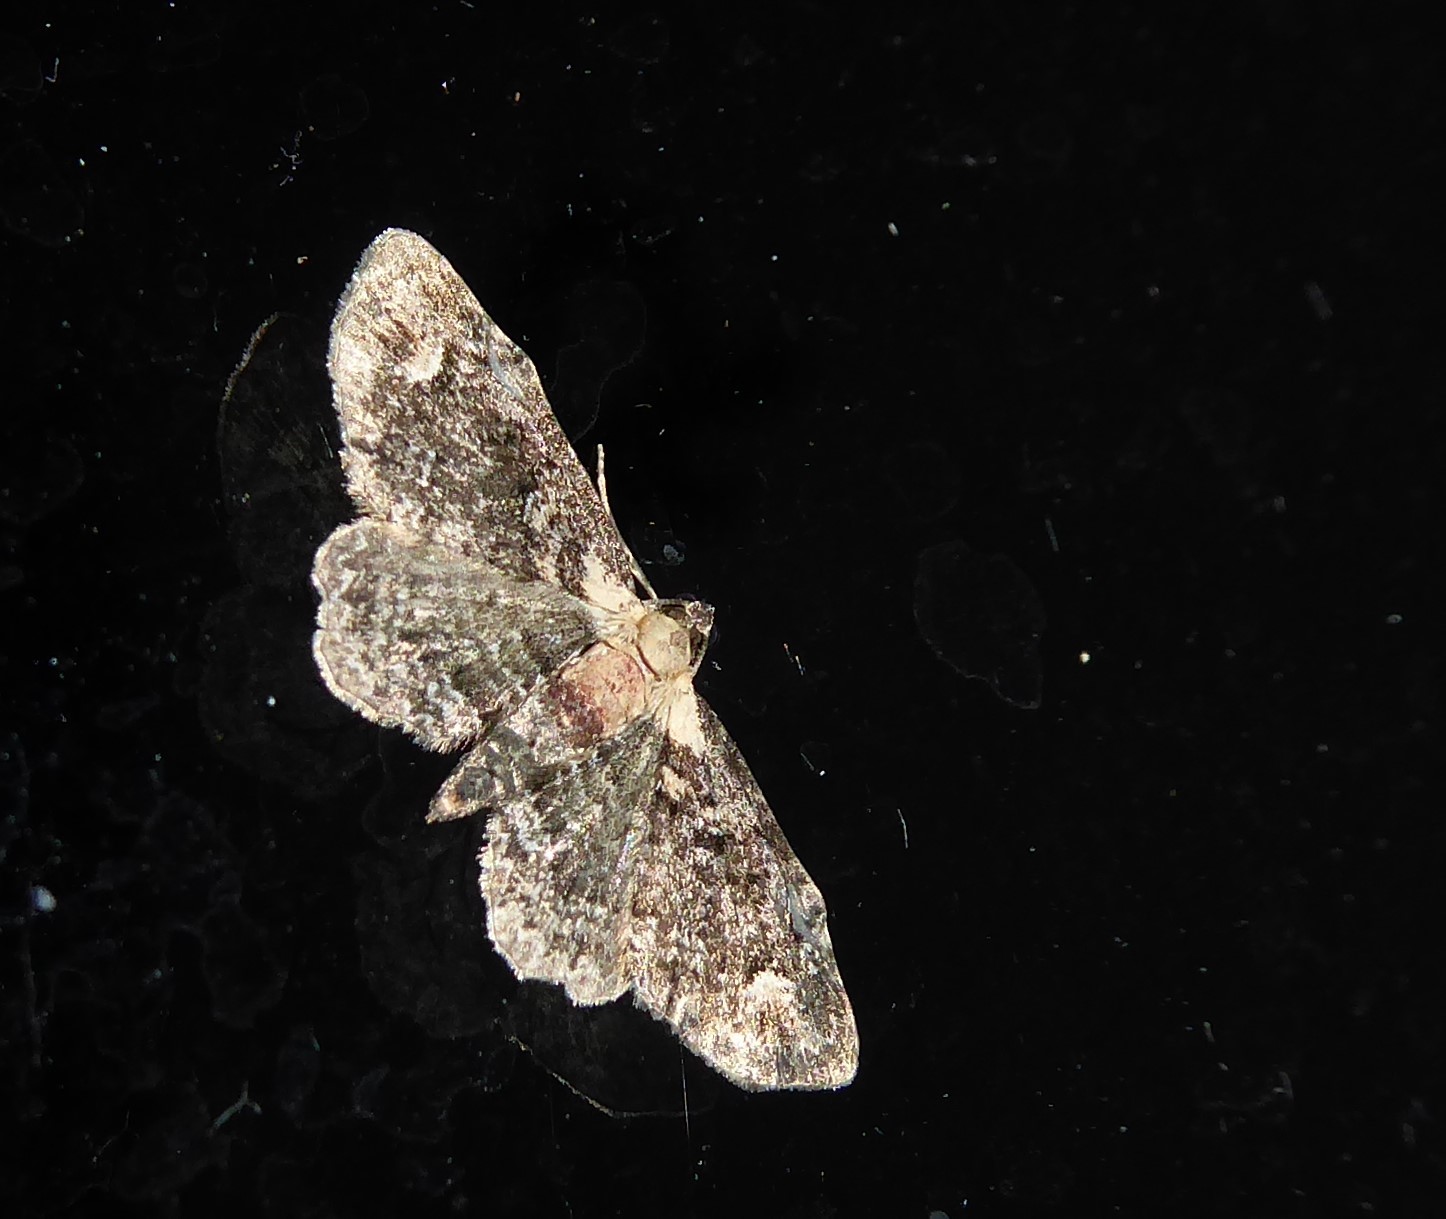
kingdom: Animalia
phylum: Arthropoda
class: Insecta
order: Lepidoptera
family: Geometridae
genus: Pasiphilodes
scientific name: Pasiphilodes testulata
